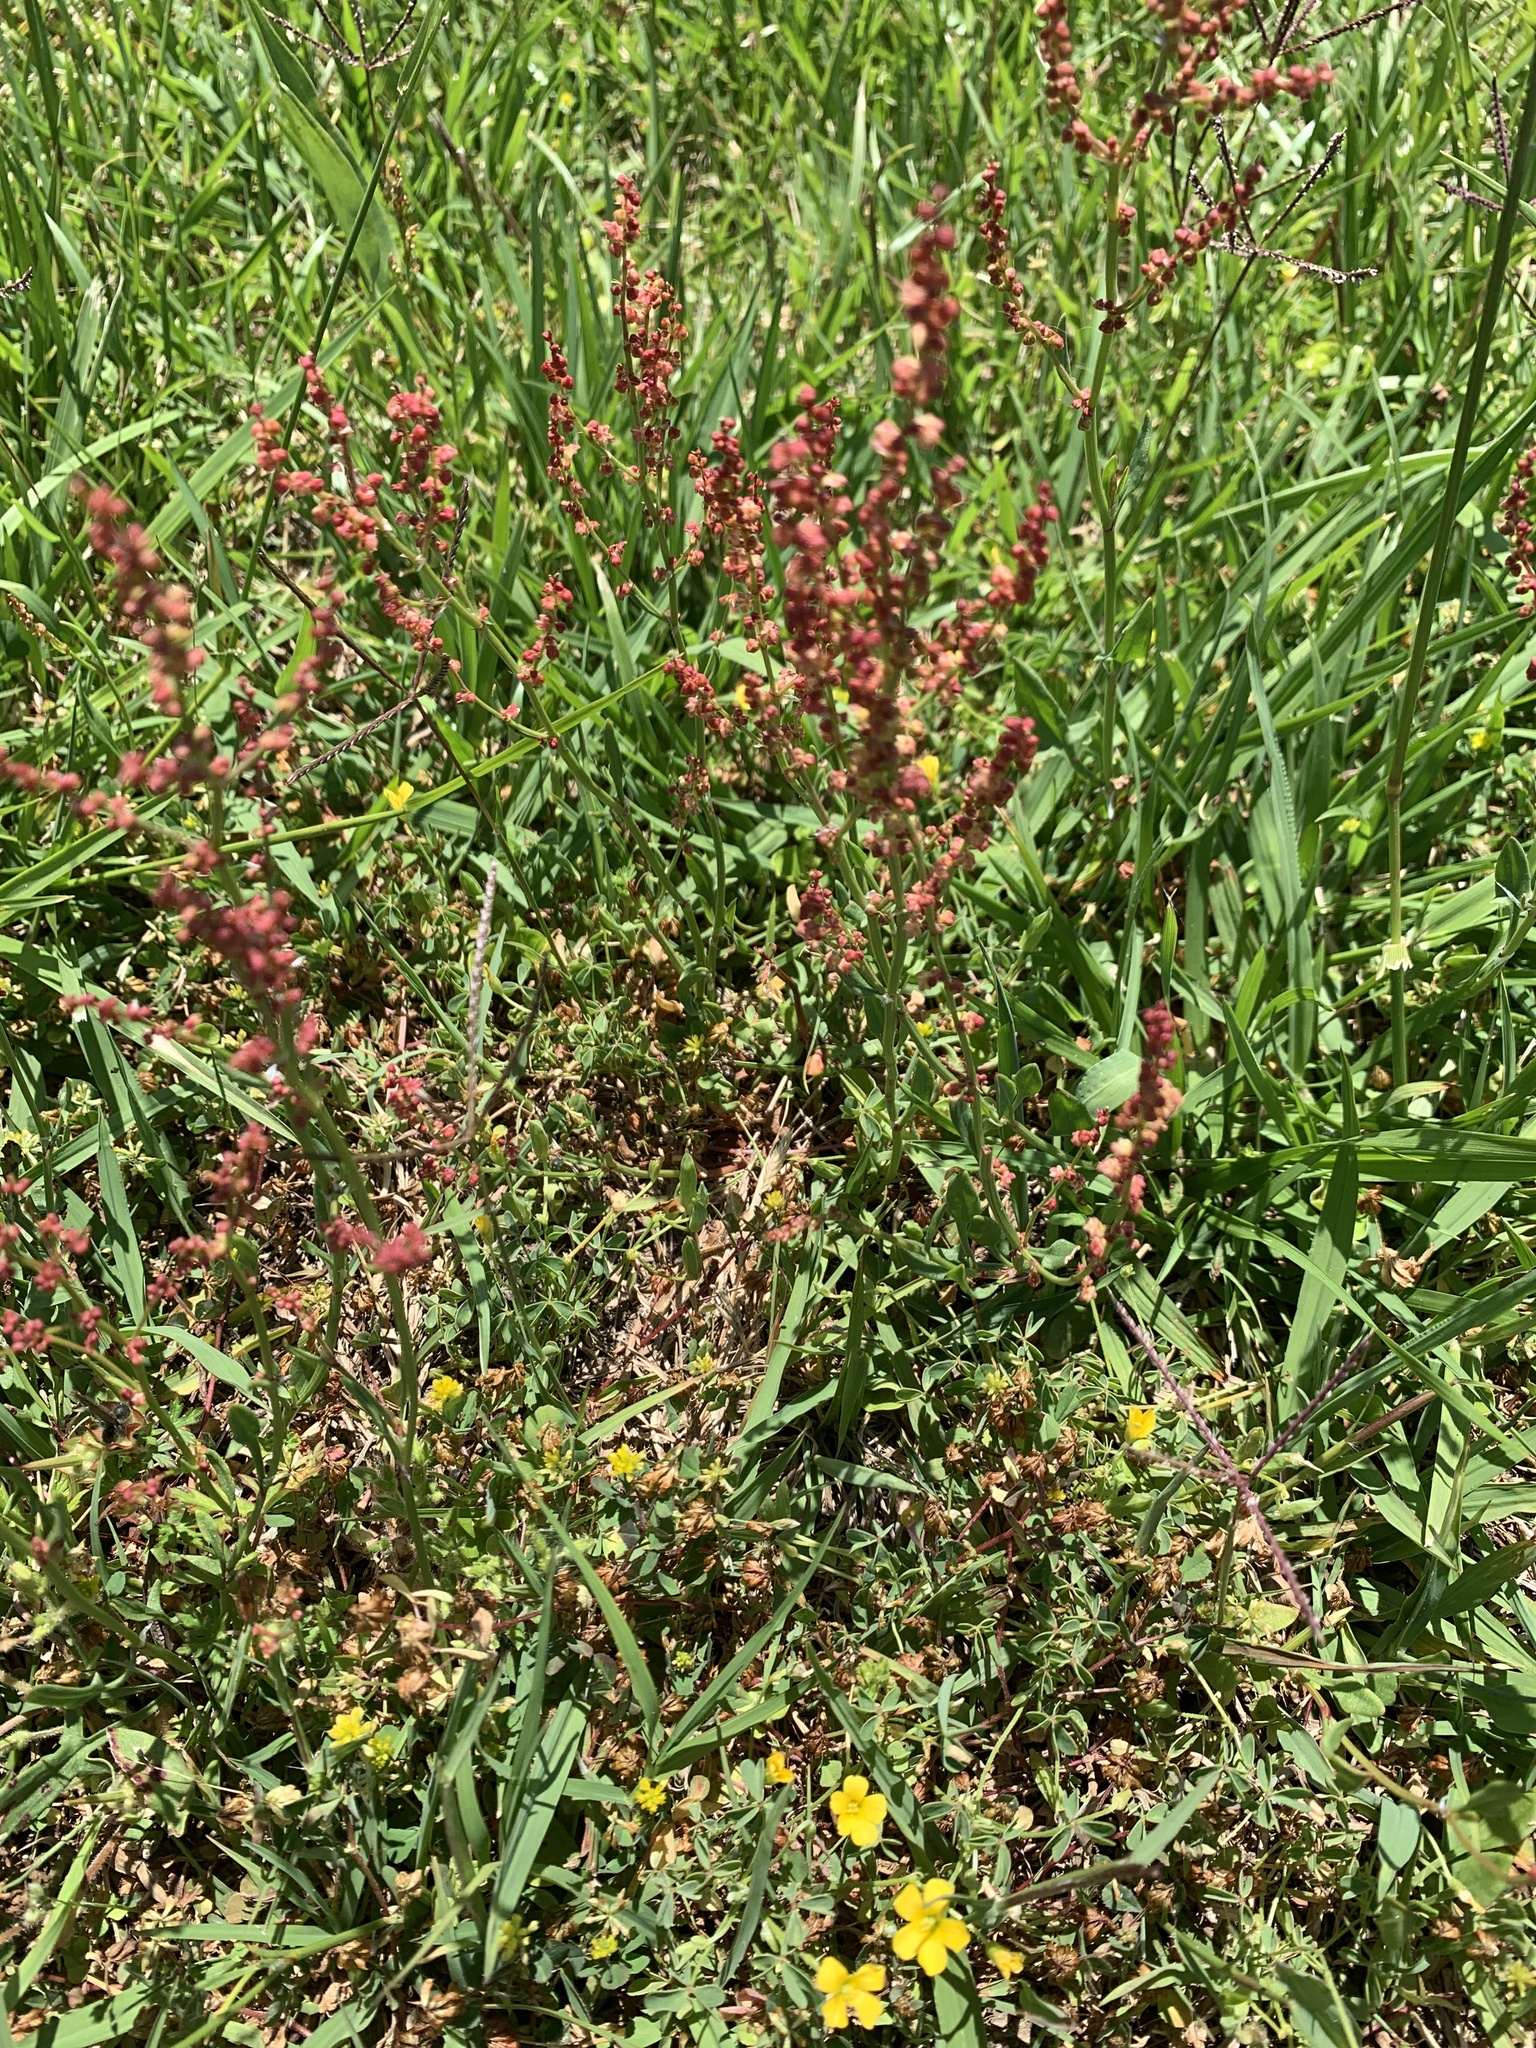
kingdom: Plantae
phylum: Tracheophyta
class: Magnoliopsida
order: Caryophyllales
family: Polygonaceae
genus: Rumex
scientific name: Rumex acetosella
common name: Common sheep sorrel
